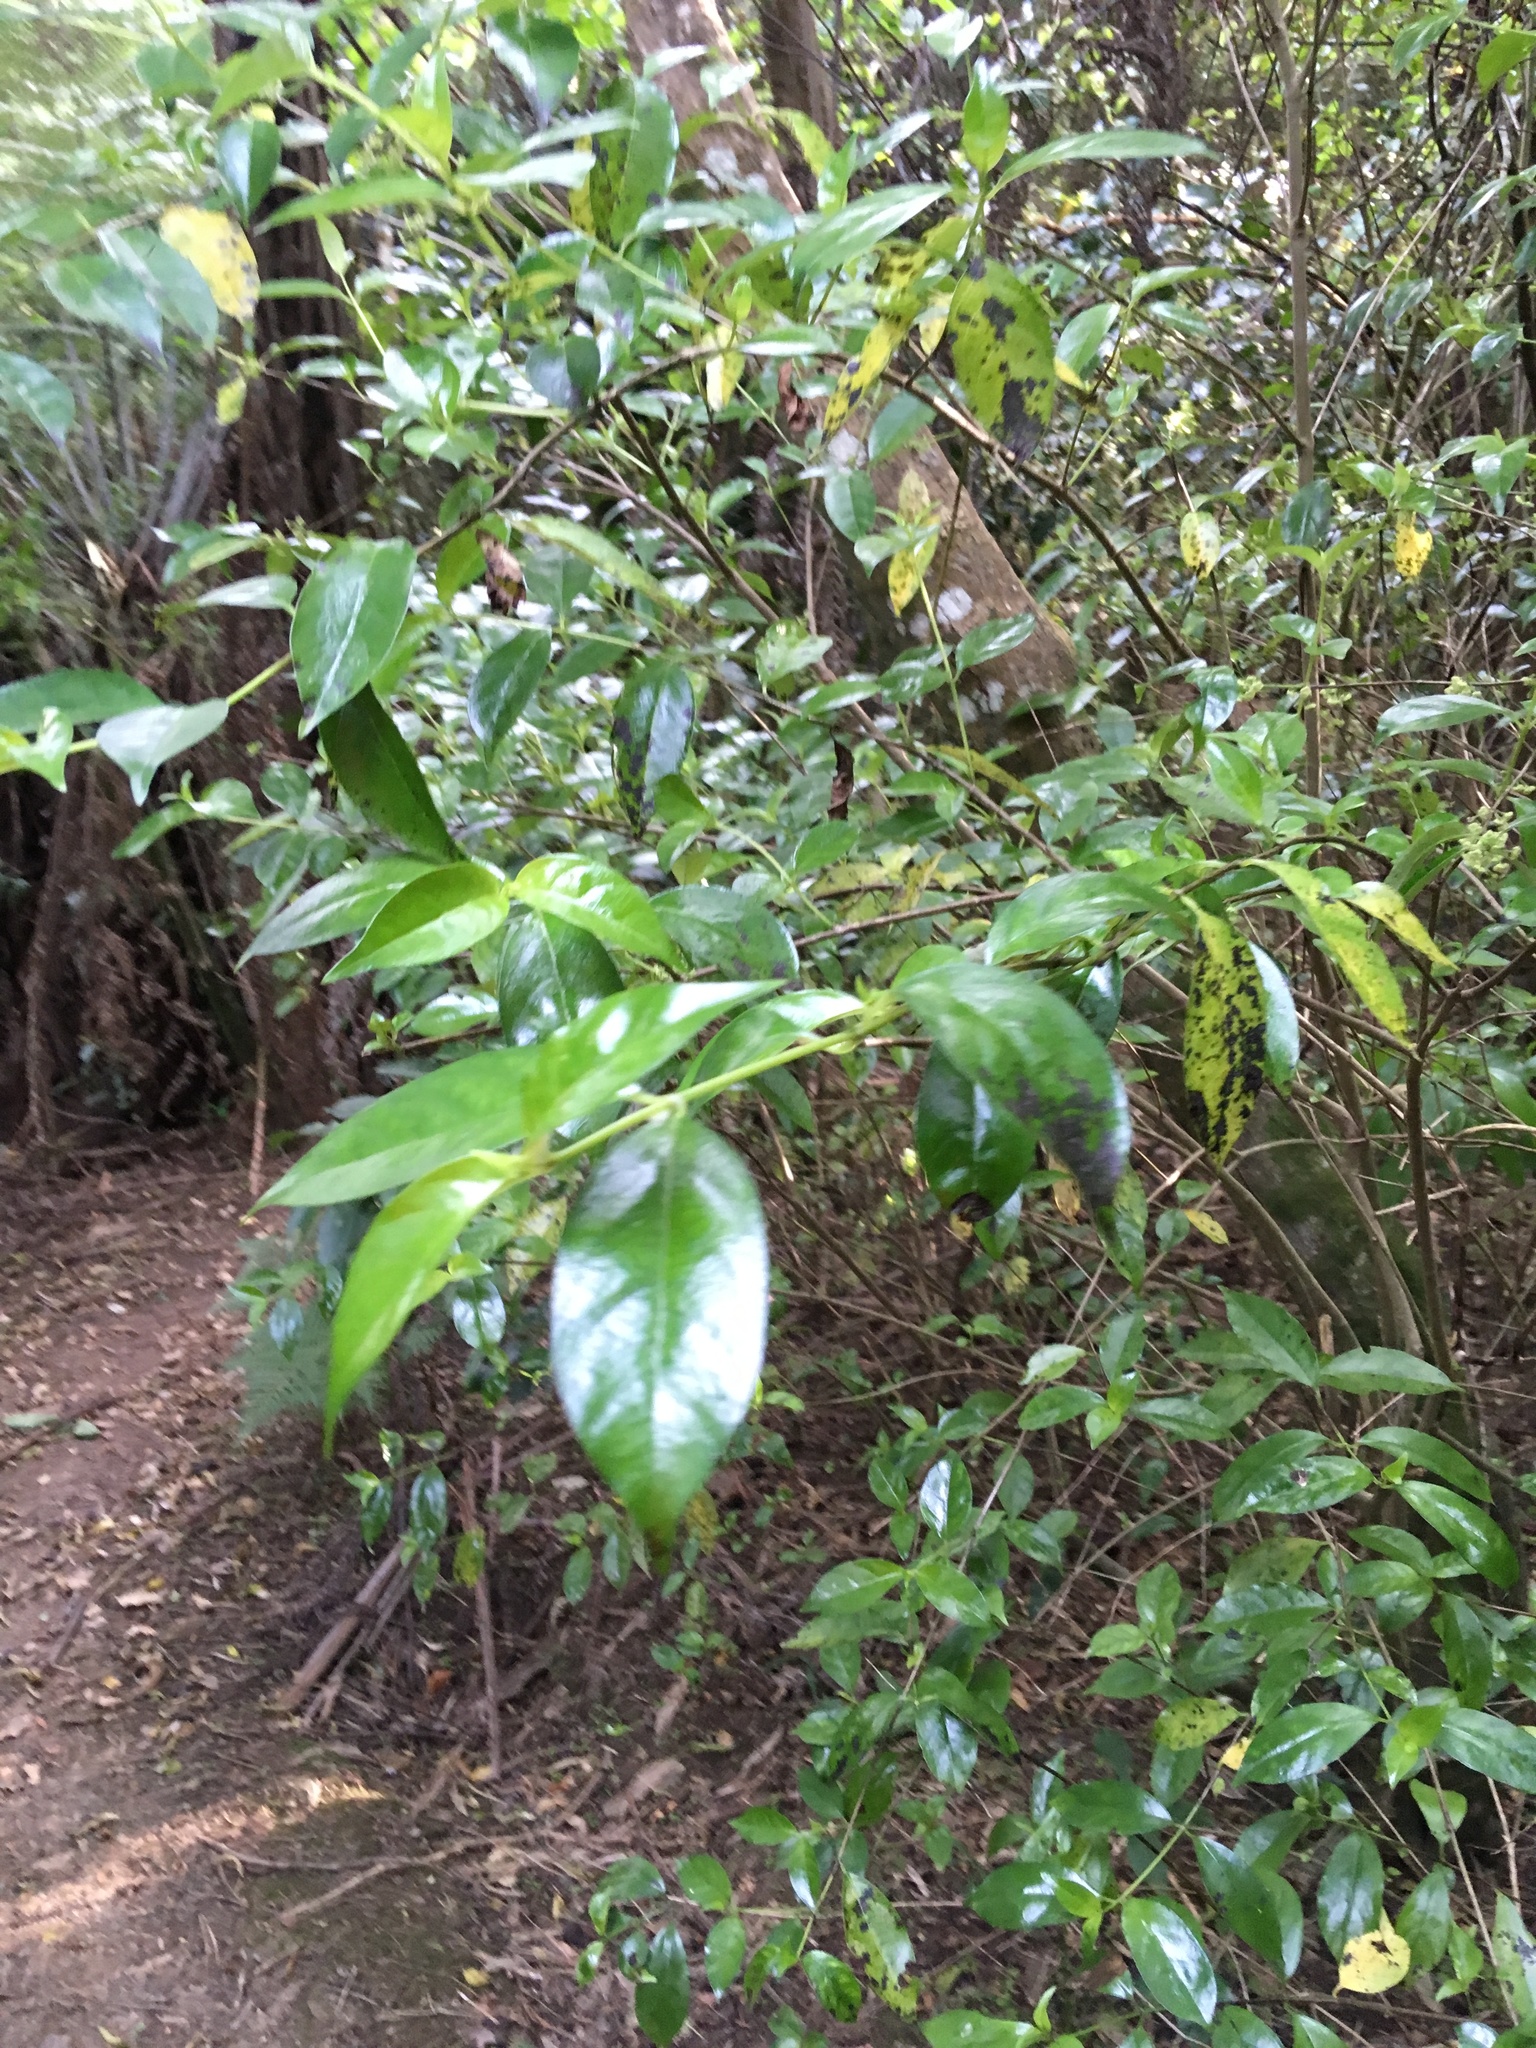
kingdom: Plantae
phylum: Tracheophyta
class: Magnoliopsida
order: Gentianales
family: Loganiaceae
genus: Geniostoma
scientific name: Geniostoma ligustrifolium
